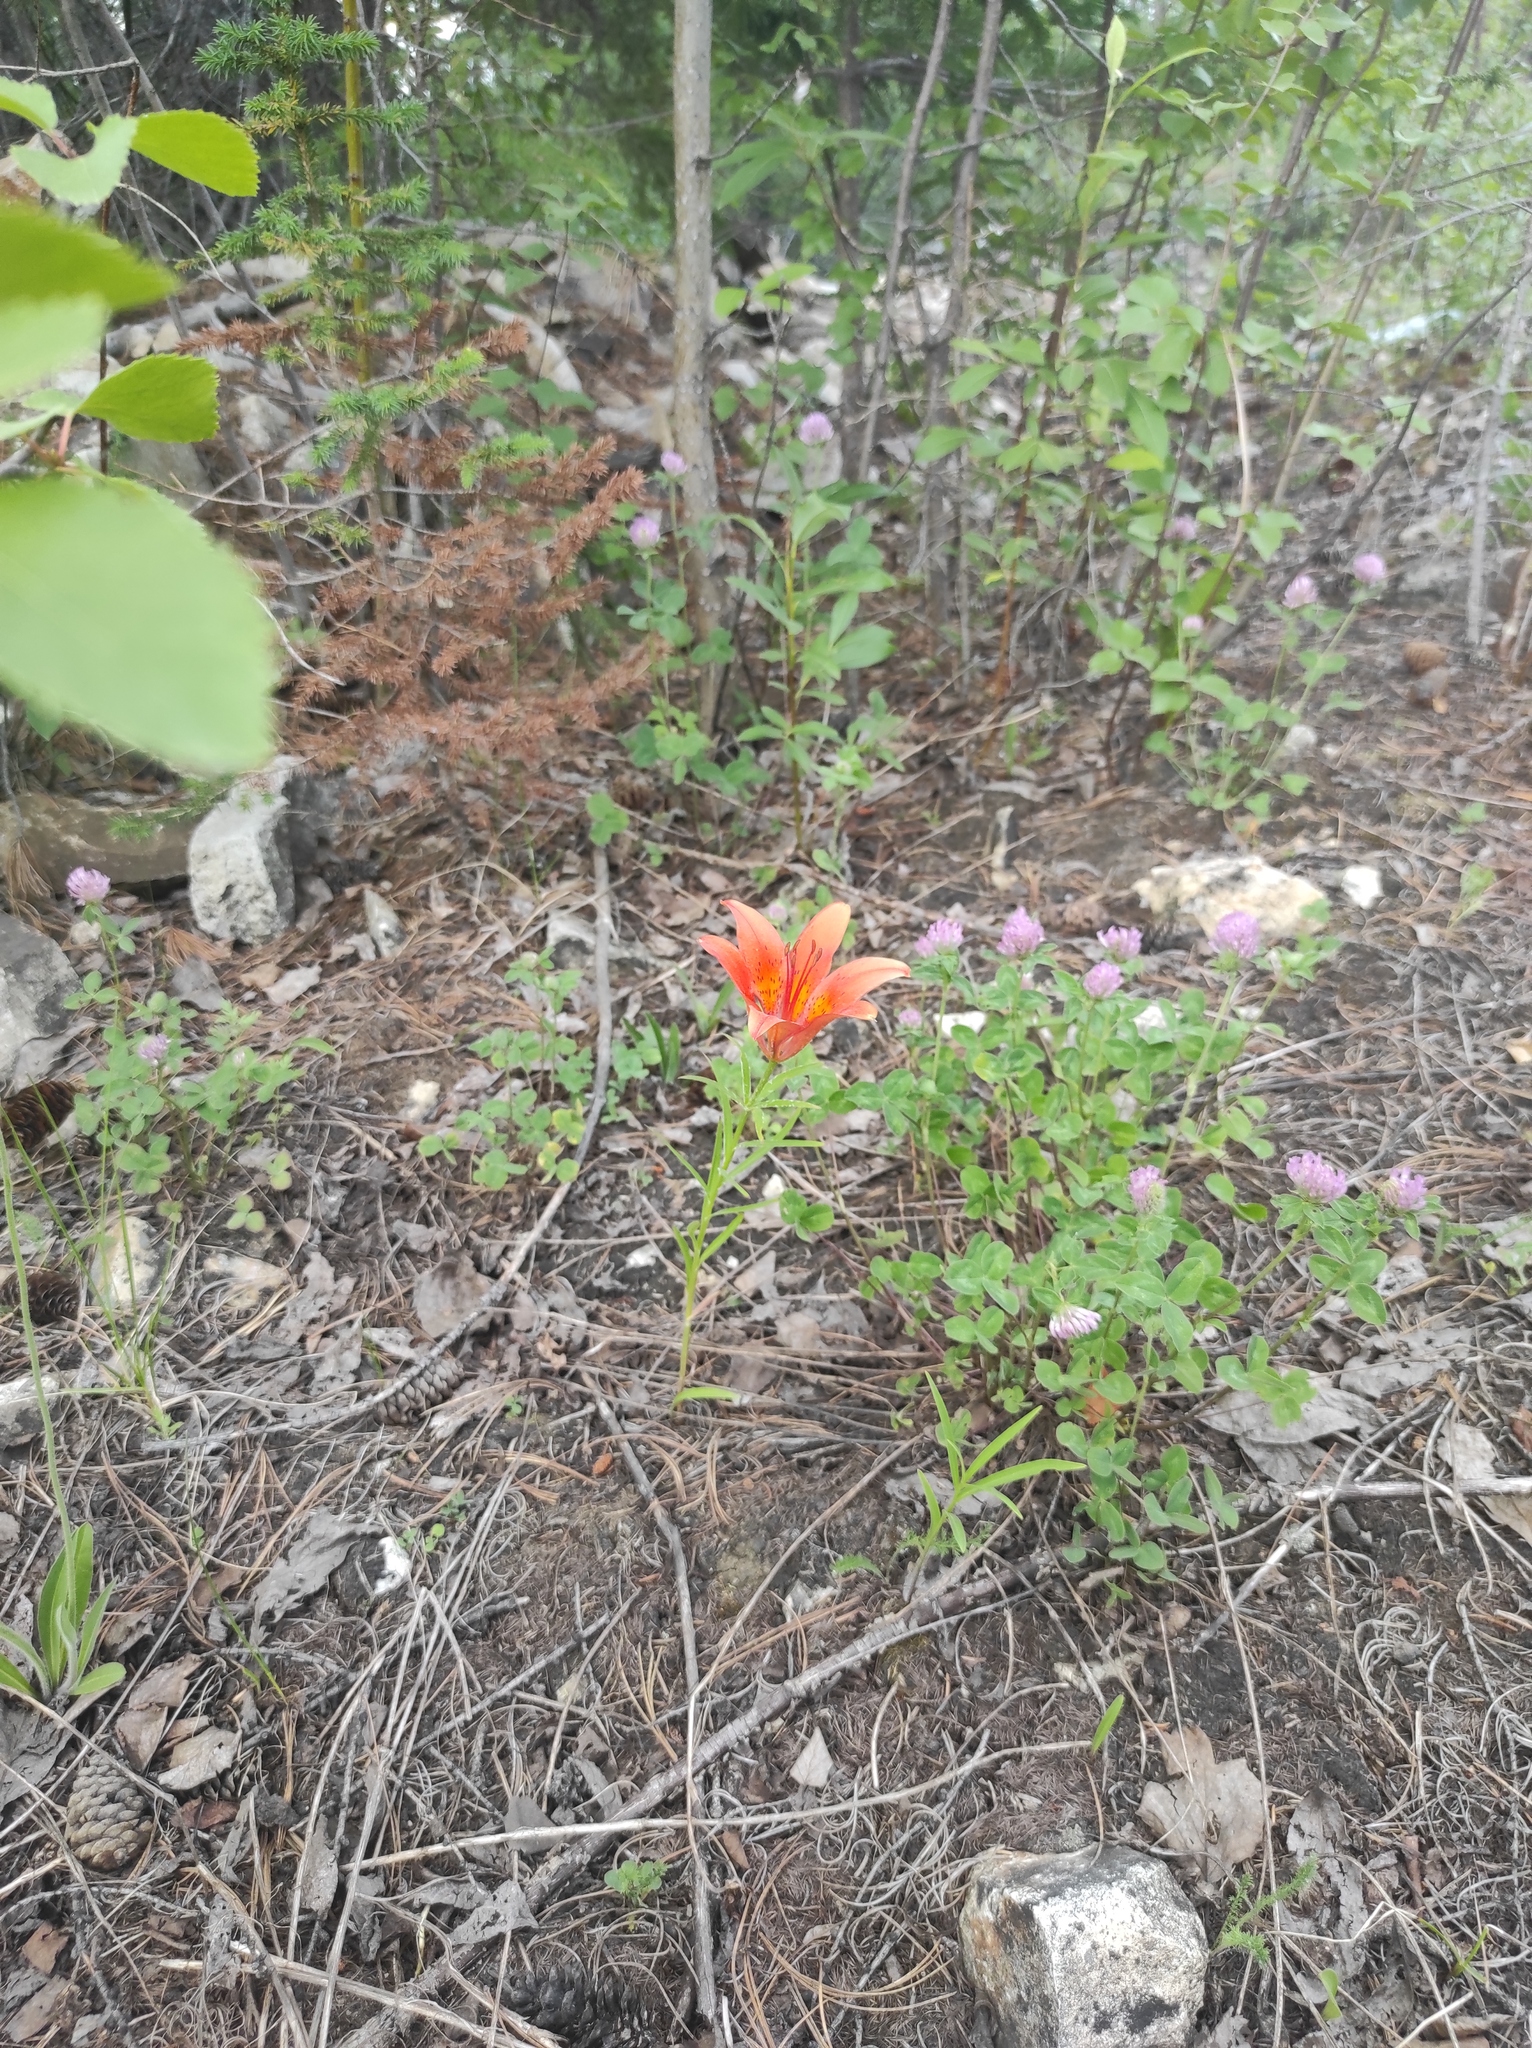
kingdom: Plantae
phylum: Tracheophyta
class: Magnoliopsida
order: Fabales
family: Fabaceae
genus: Trifolium
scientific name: Trifolium pratense
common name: Red clover
